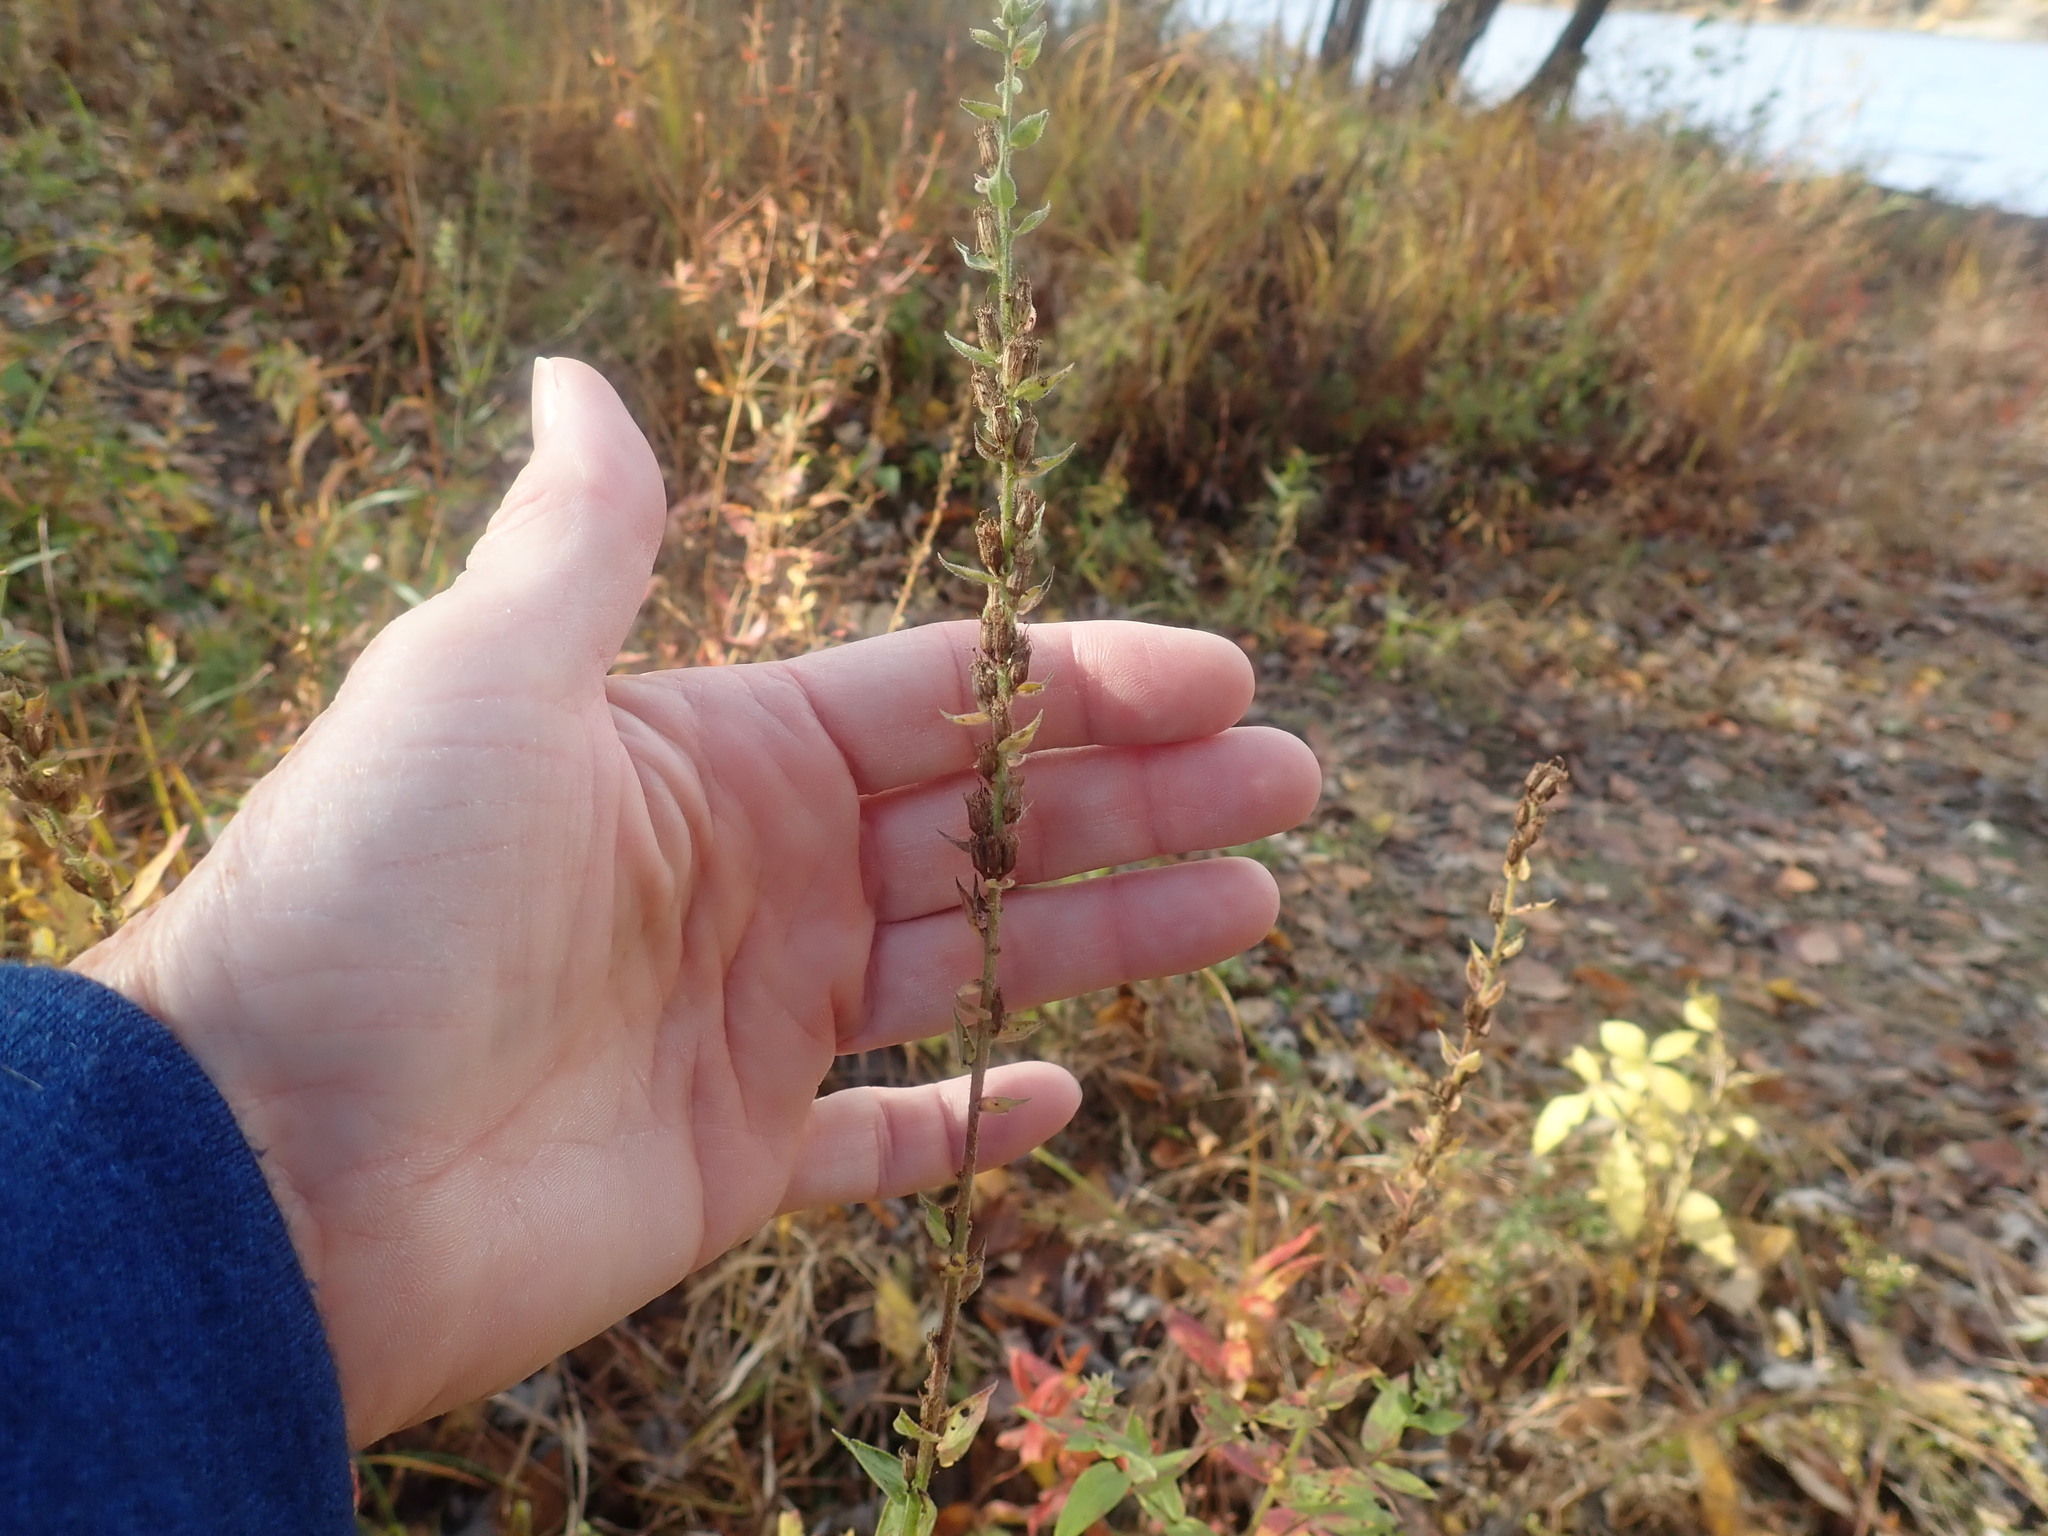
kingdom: Plantae
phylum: Tracheophyta
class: Magnoliopsida
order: Myrtales
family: Lythraceae
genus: Lythrum
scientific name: Lythrum salicaria
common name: Purple loosestrife
